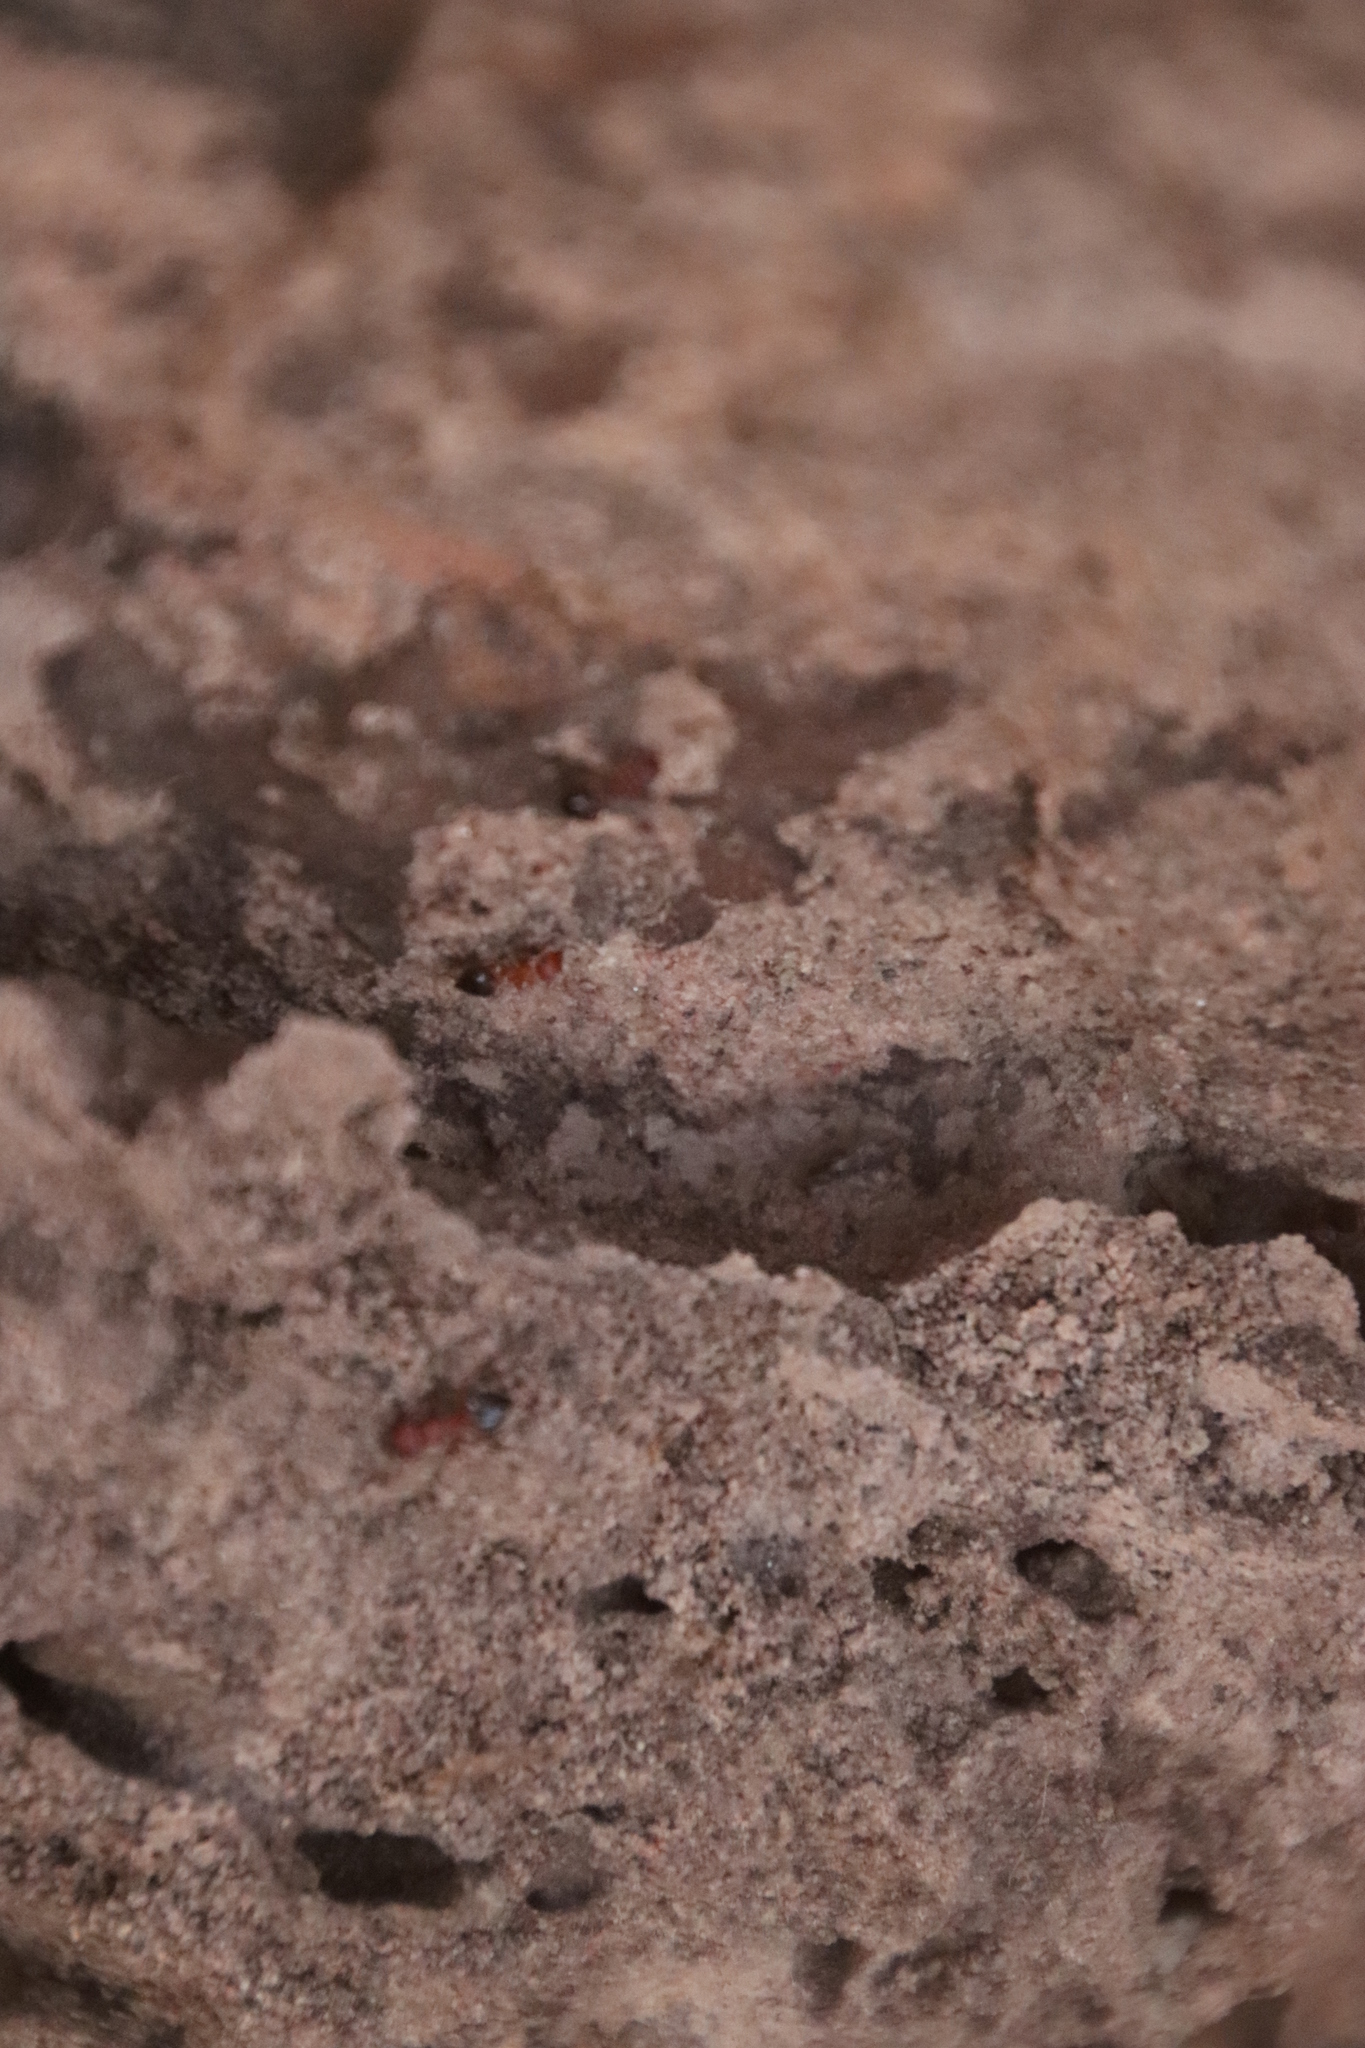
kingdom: Animalia
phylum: Arthropoda
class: Insecta
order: Hymenoptera
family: Formicidae
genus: Crematogaster
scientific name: Crematogaster melanogaster
